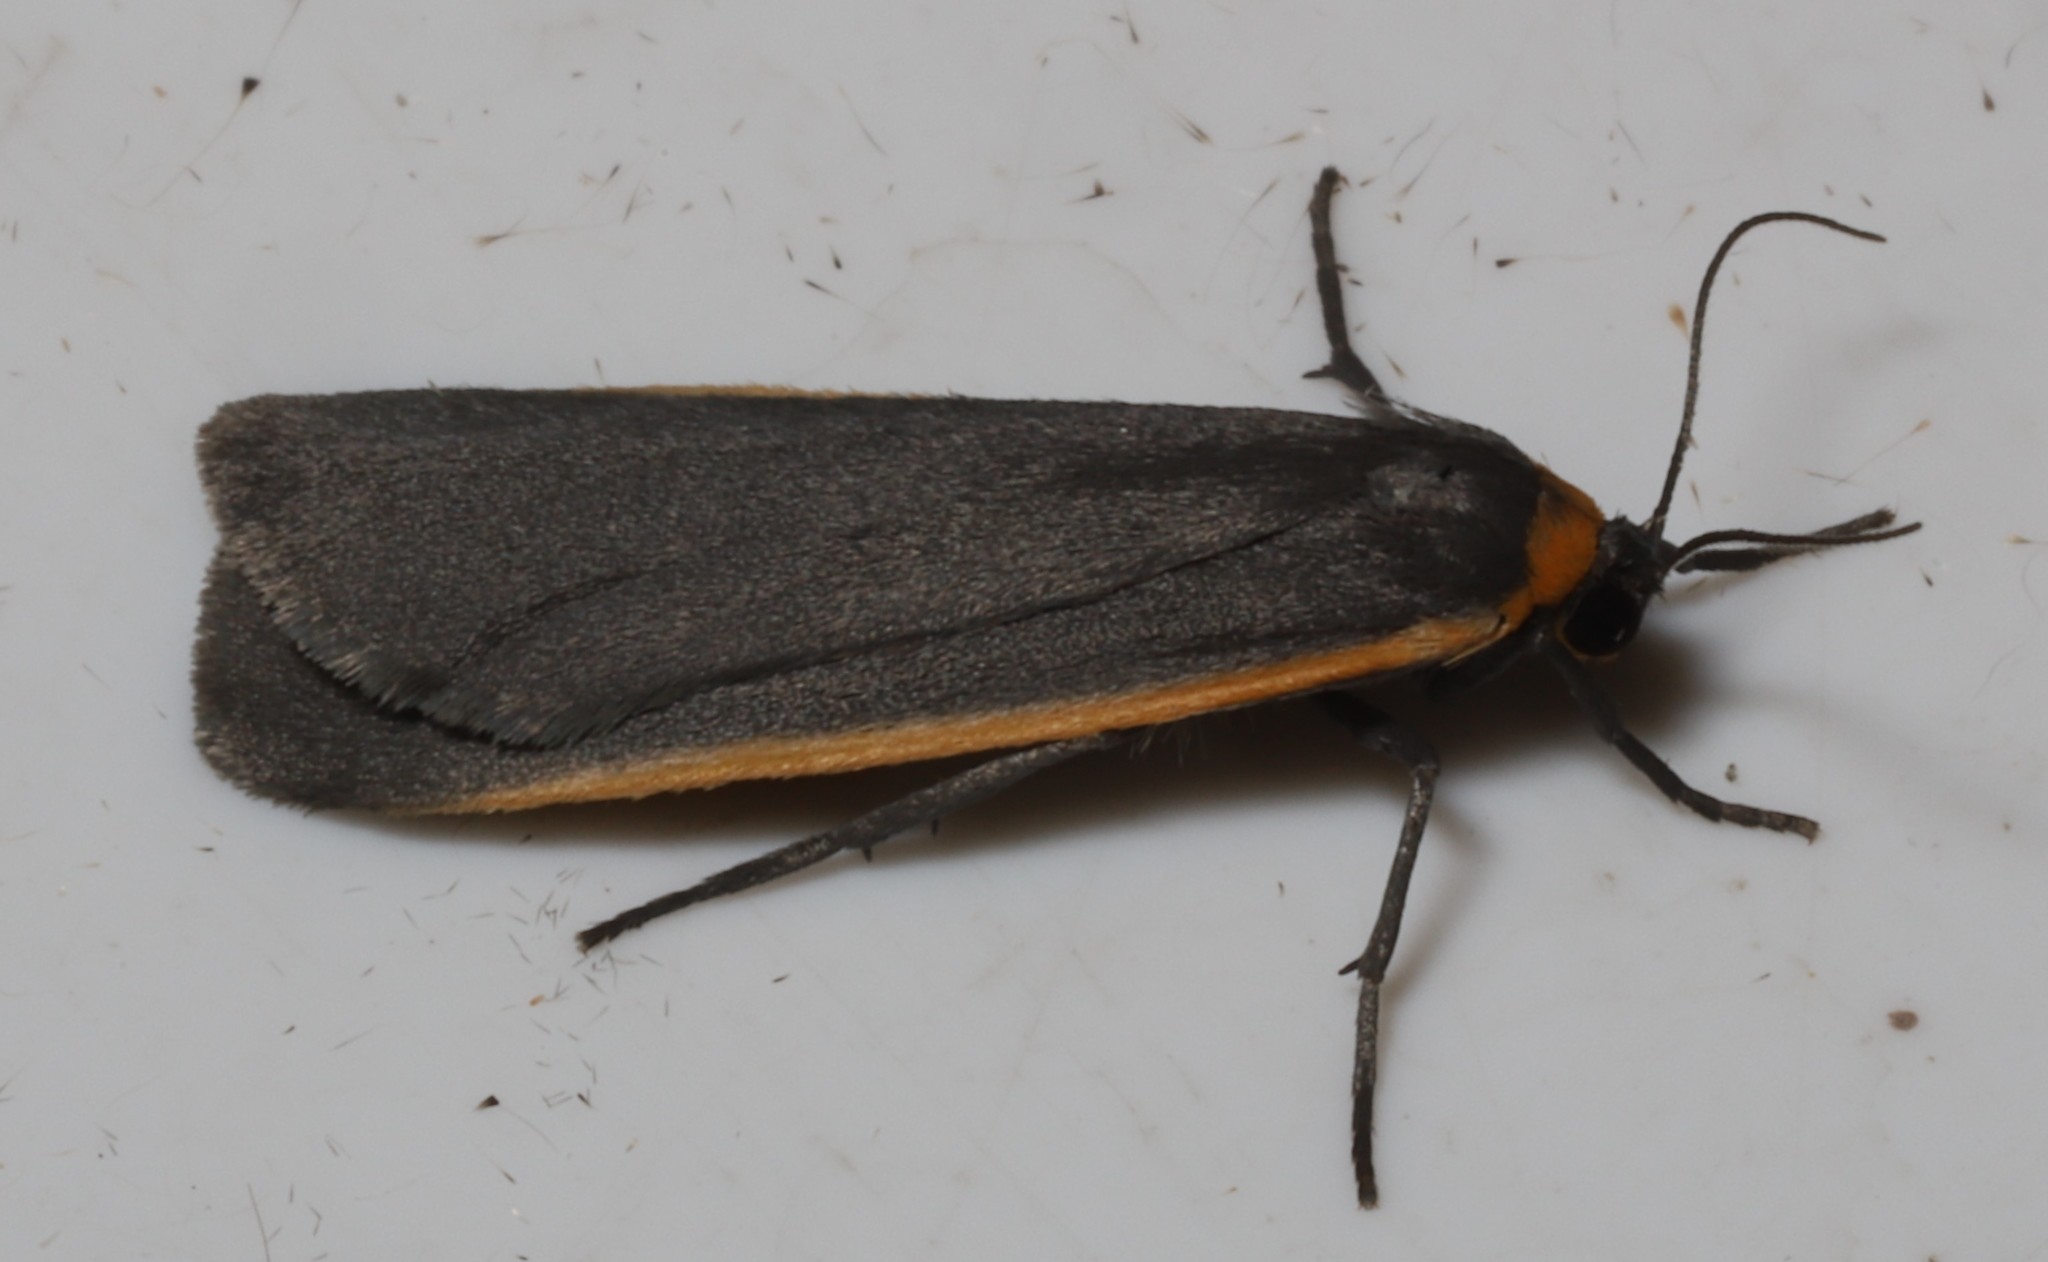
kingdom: Animalia
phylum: Arthropoda
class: Insecta
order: Lepidoptera
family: Erebidae
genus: Manulea
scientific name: Manulea bicolor
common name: Bicolored moth
